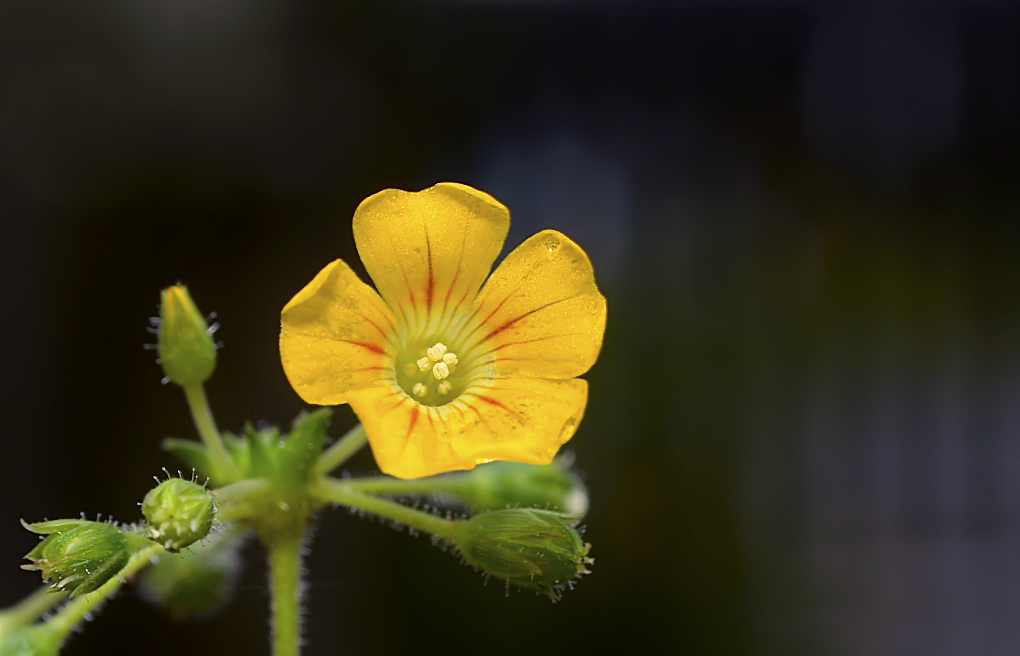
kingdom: Plantae
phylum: Tracheophyta
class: Magnoliopsida
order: Oxalidales
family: Oxalidaceae
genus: Biophytum
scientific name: Biophytum sensitivum
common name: Lifeplant
